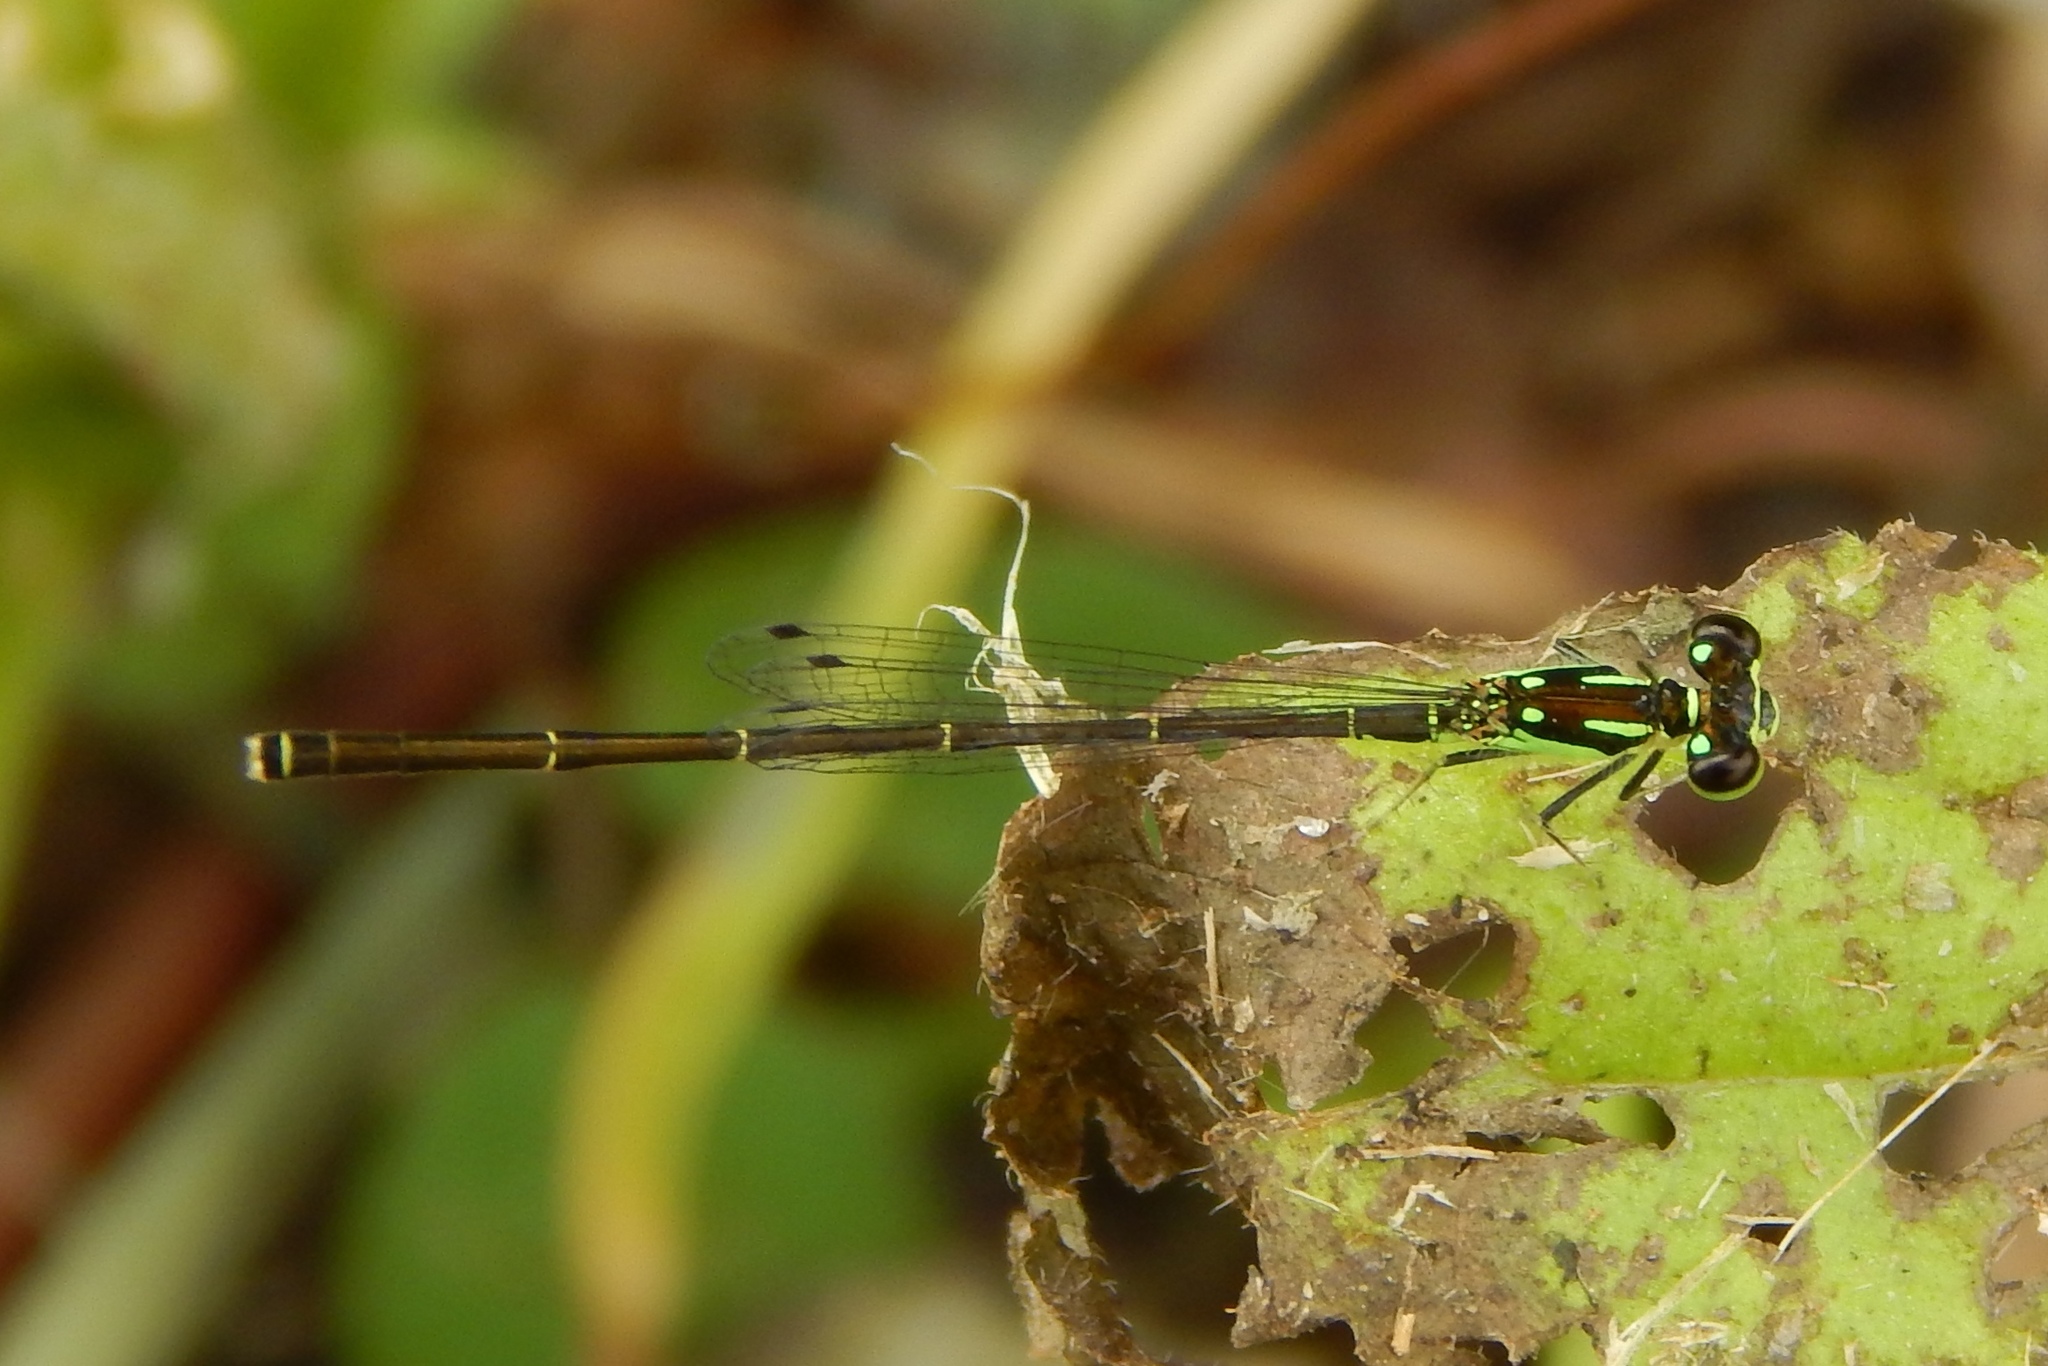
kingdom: Animalia
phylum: Arthropoda
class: Insecta
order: Odonata
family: Coenagrionidae
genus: Ischnura
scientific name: Ischnura posita
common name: Fragile forktail
